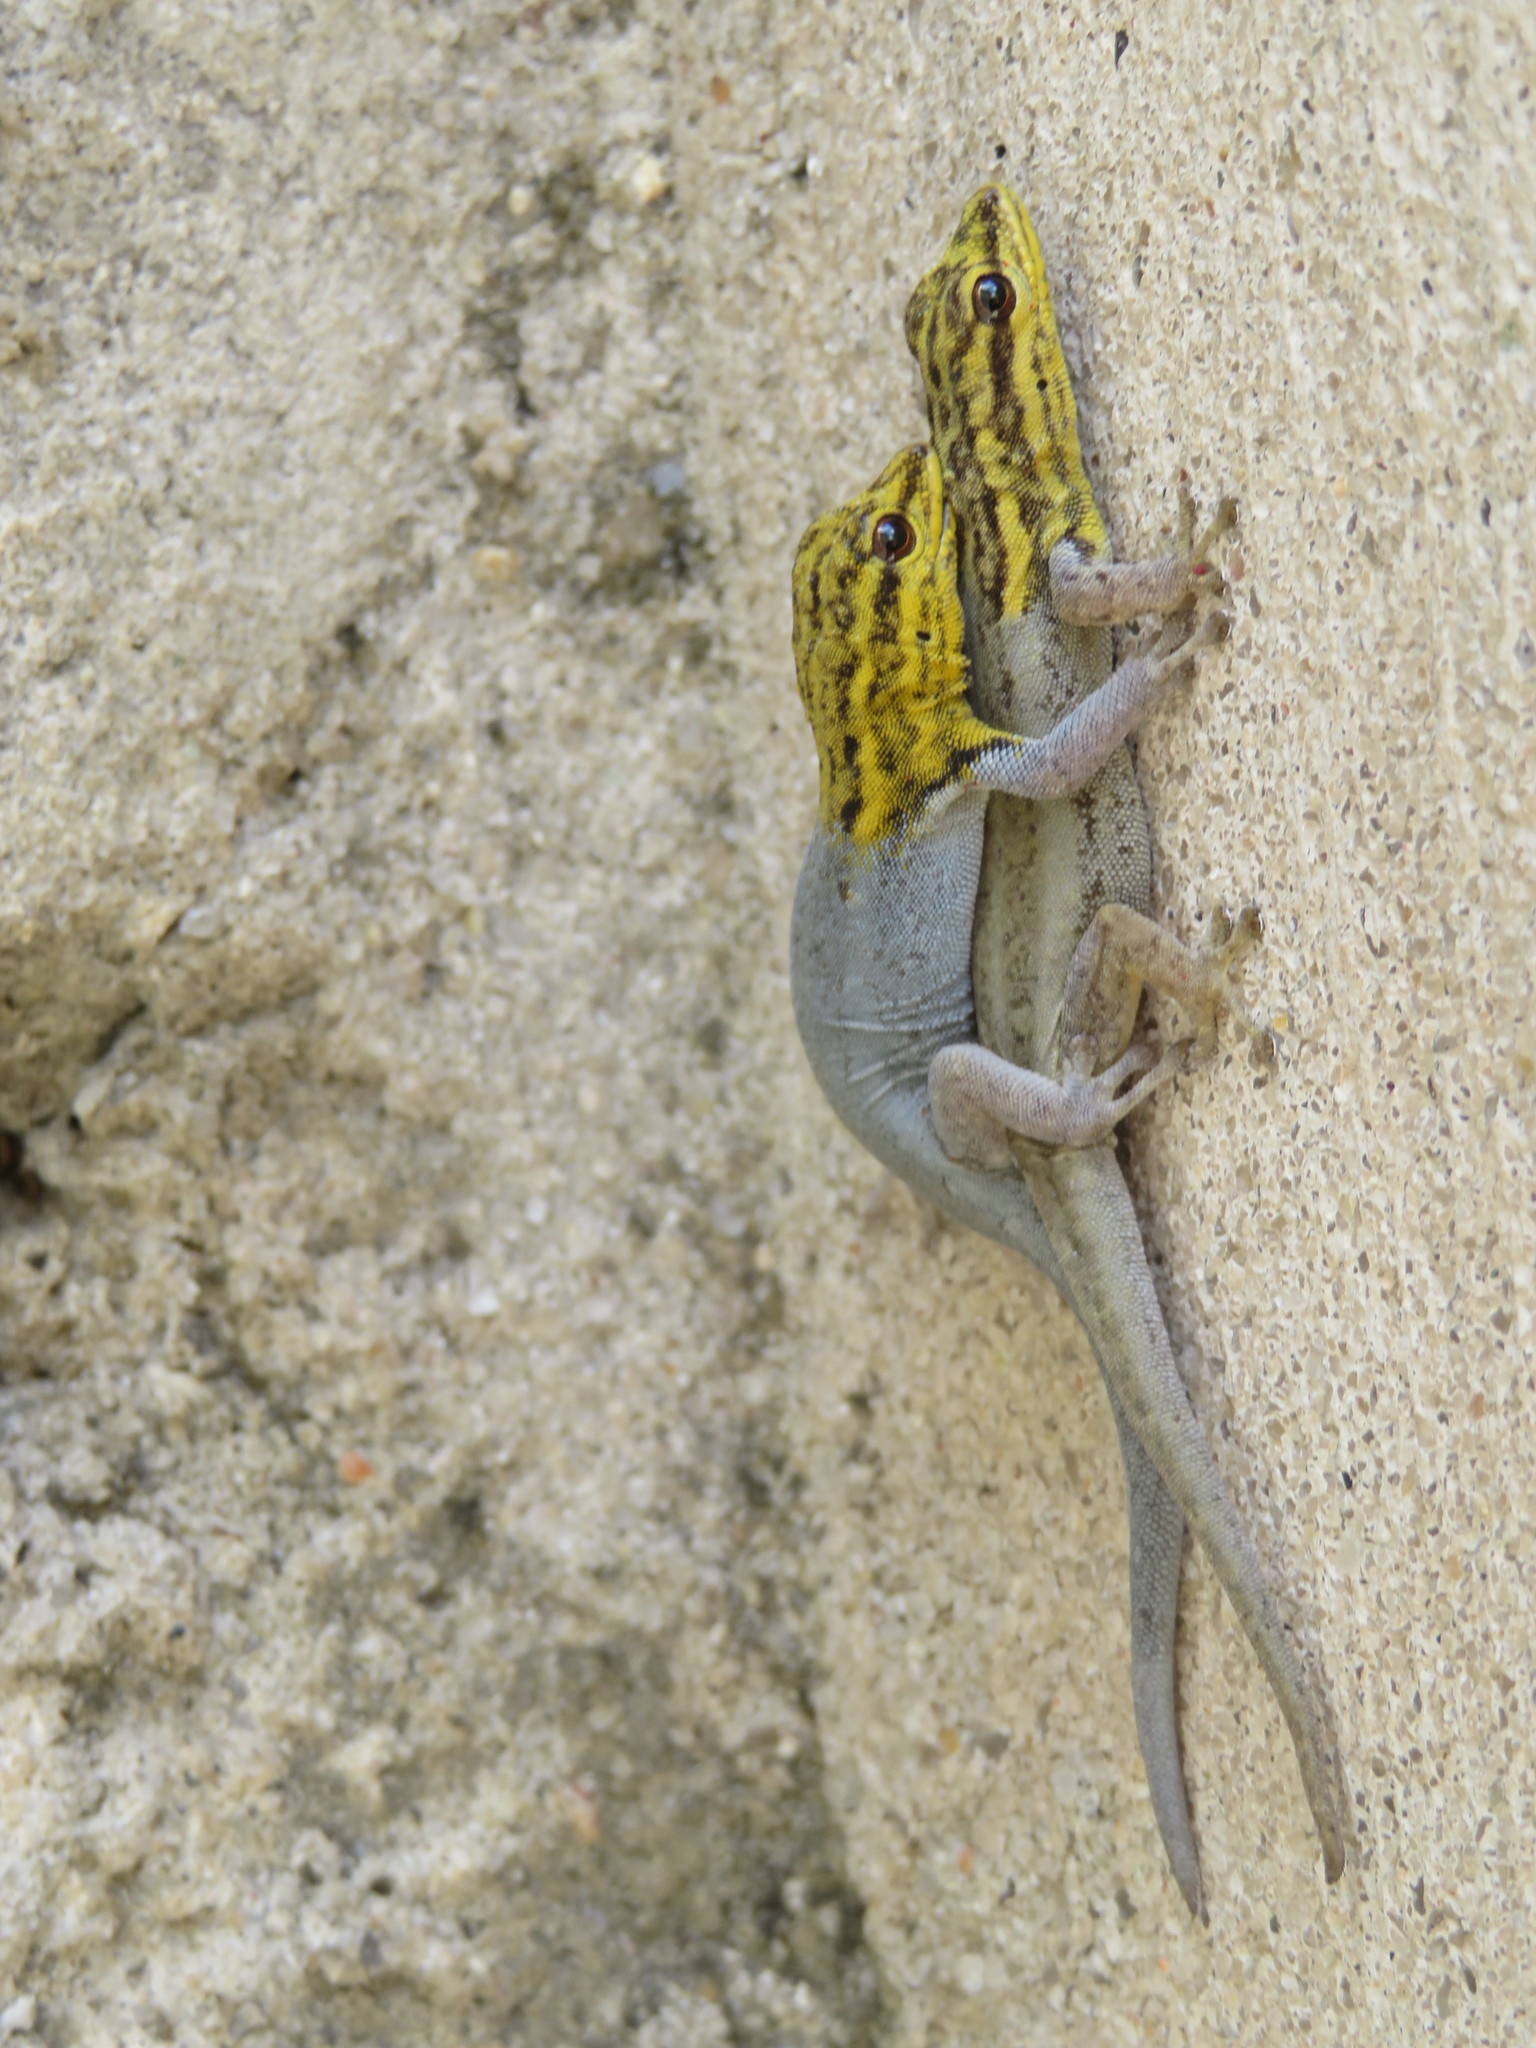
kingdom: Animalia
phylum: Chordata
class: Squamata
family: Gekkonidae
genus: Lygodactylus
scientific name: Lygodactylus picturatus
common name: Painted dwarf gecko
